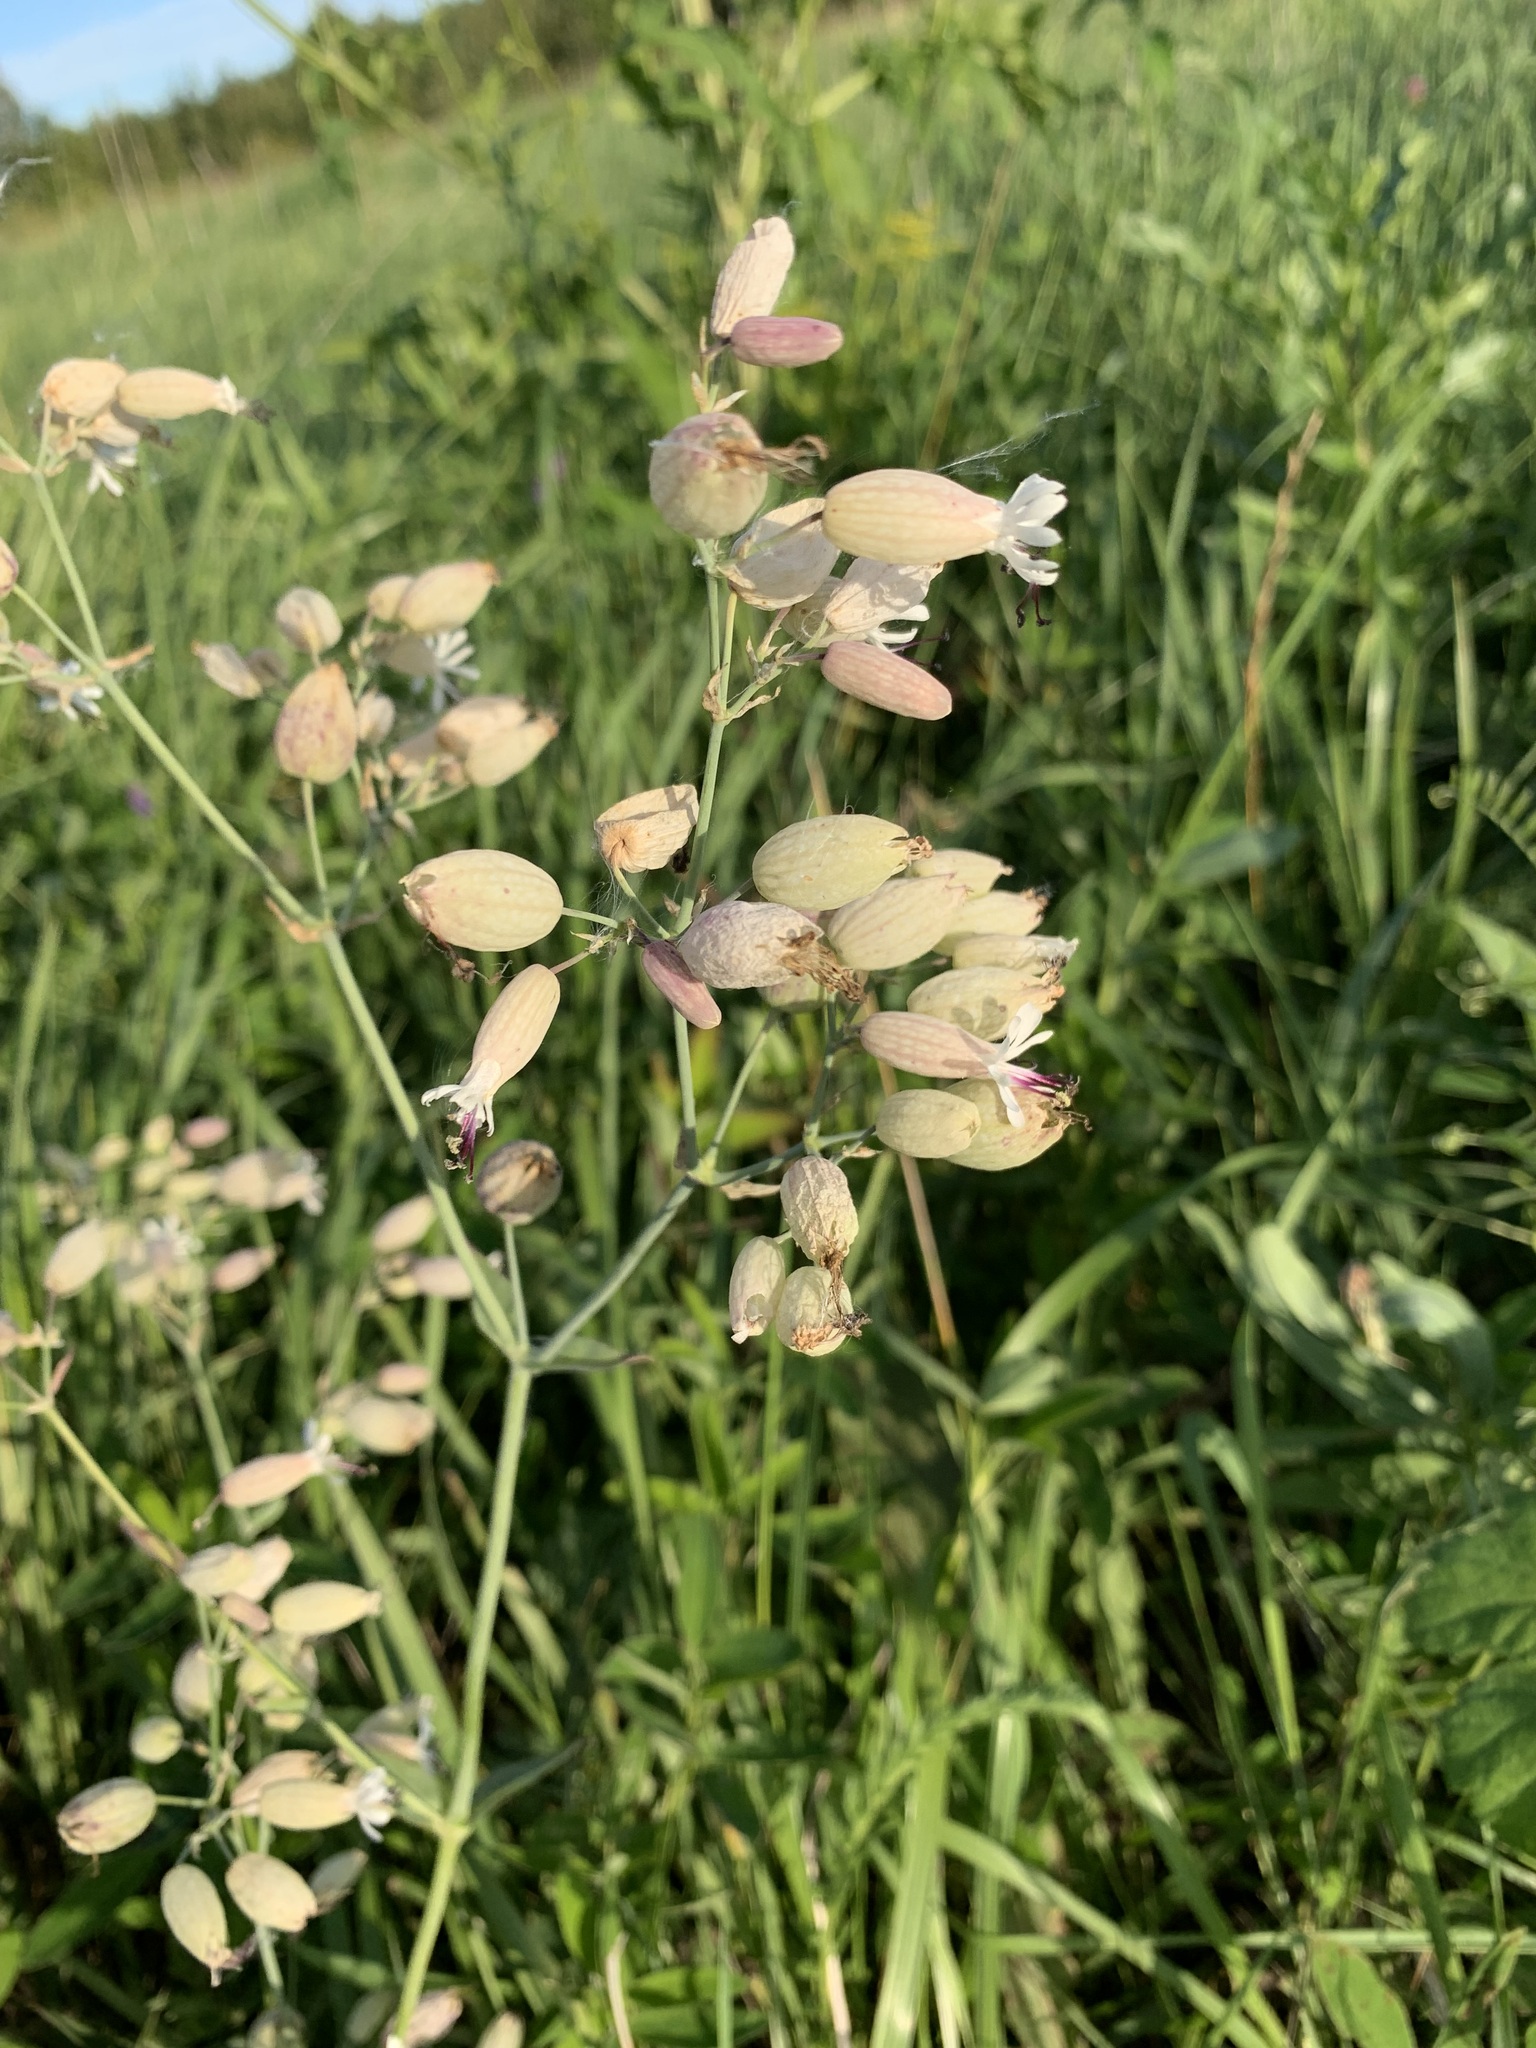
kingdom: Plantae
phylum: Tracheophyta
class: Magnoliopsida
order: Caryophyllales
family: Caryophyllaceae
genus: Silene
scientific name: Silene vulgaris
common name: Bladder campion
